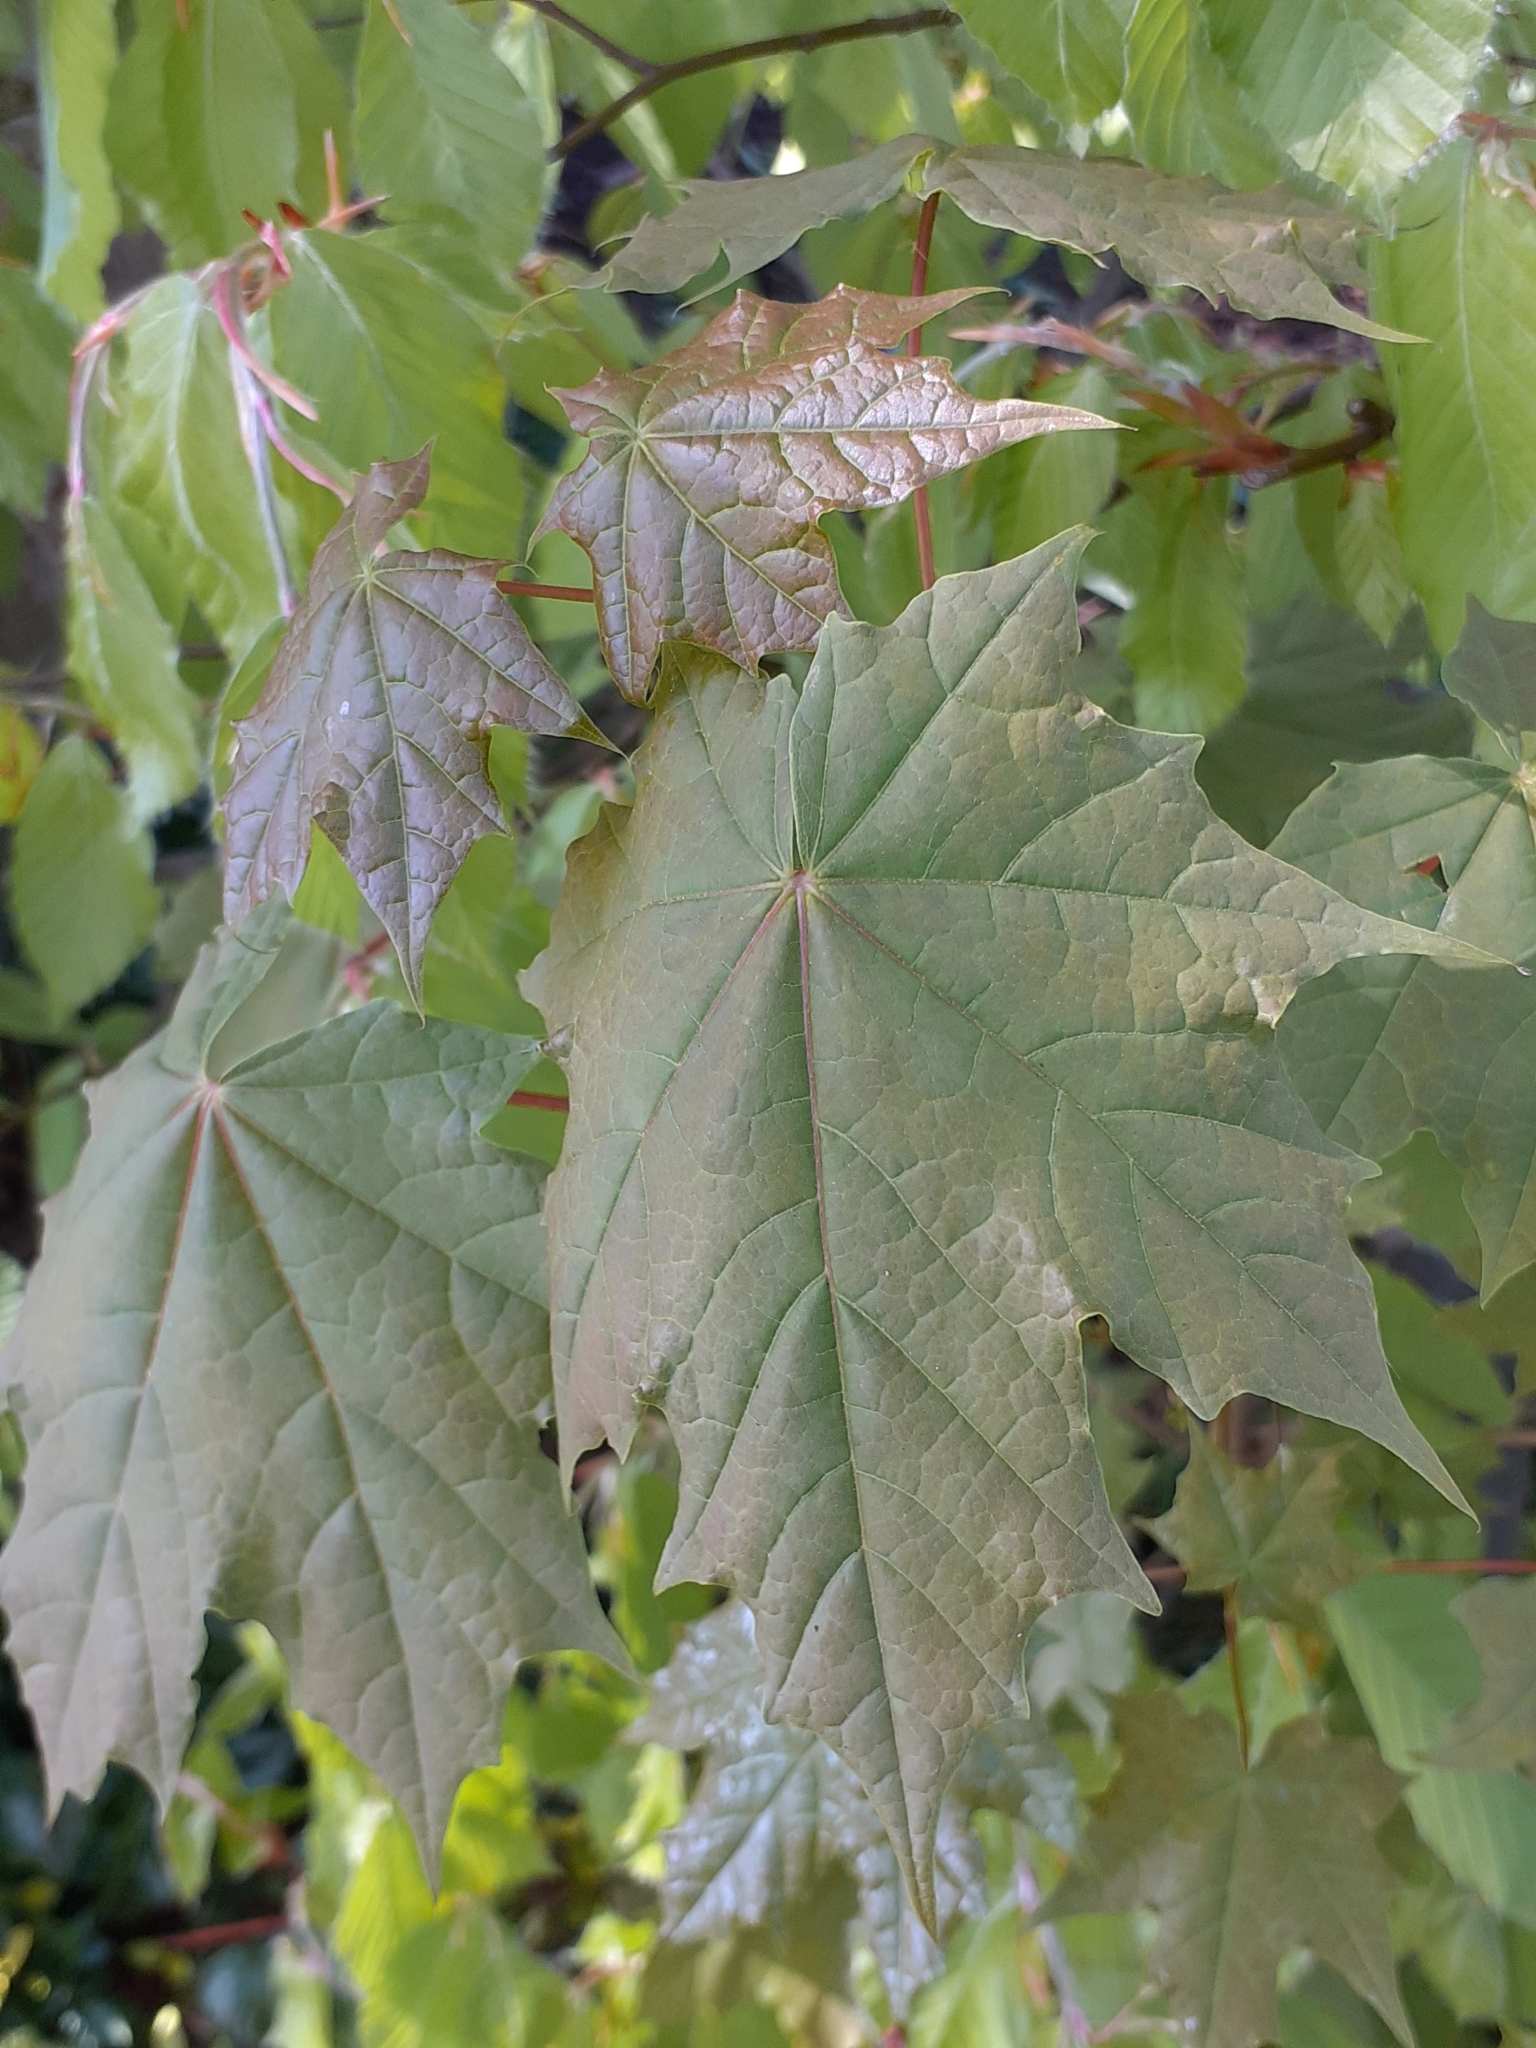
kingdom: Plantae
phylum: Tracheophyta
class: Magnoliopsida
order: Sapindales
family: Sapindaceae
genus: Acer
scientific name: Acer platanoides
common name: Norway maple
